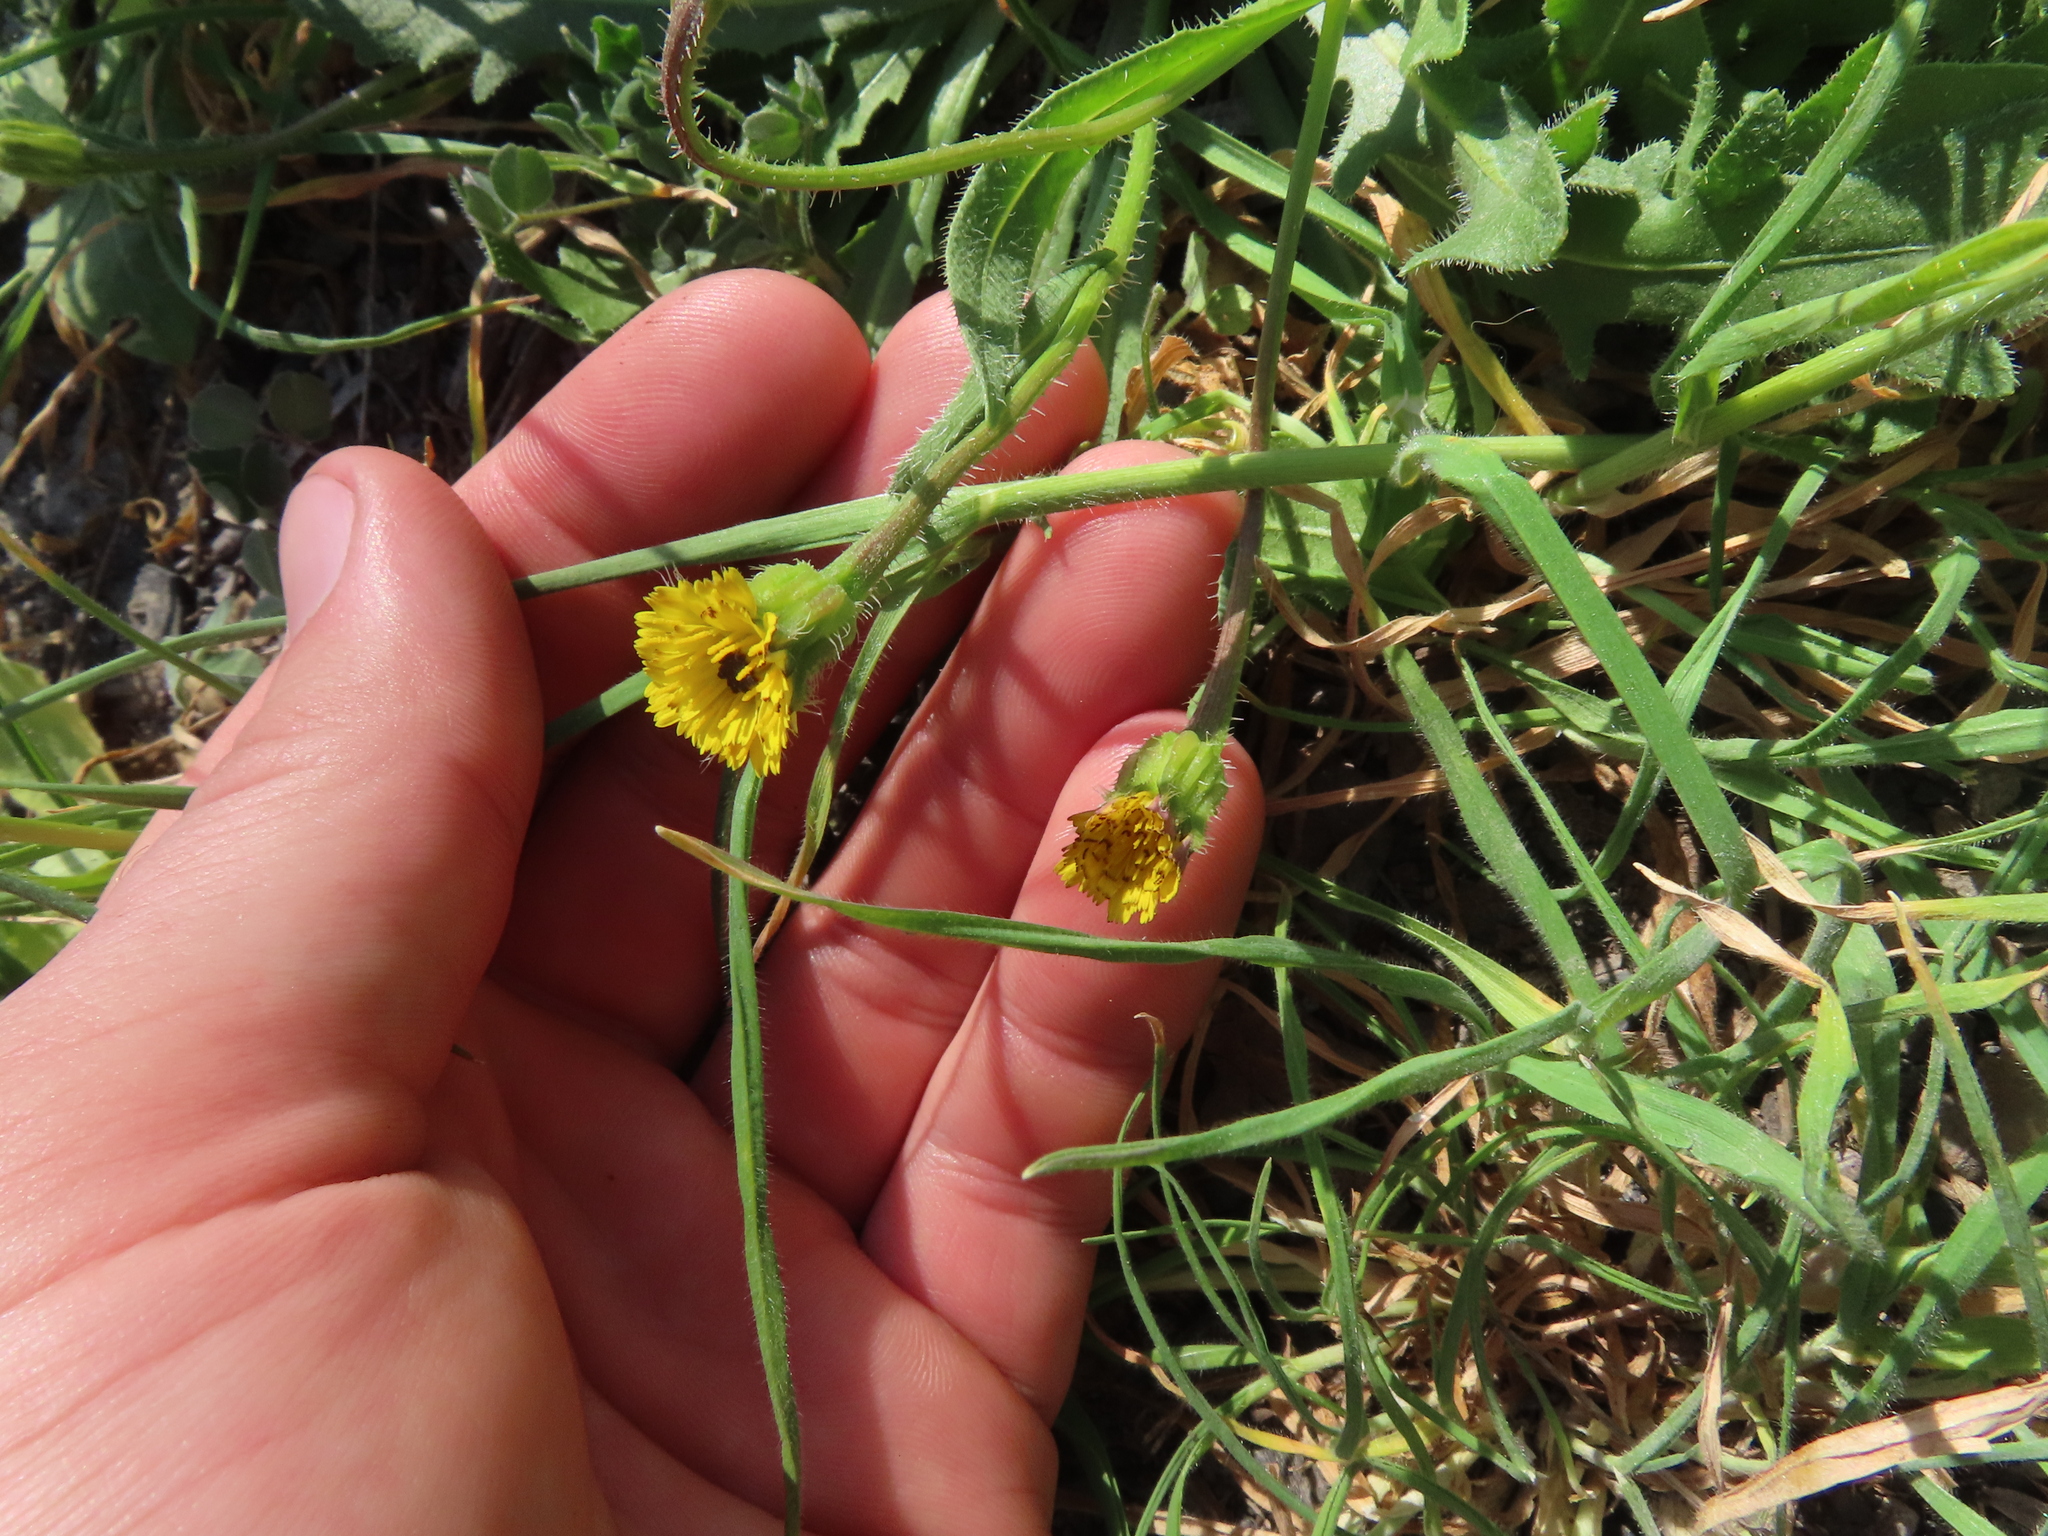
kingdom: Plantae
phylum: Tracheophyta
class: Magnoliopsida
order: Asterales
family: Asteraceae
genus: Hedypnois
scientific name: Hedypnois rhagadioloides
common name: Cretan weed
